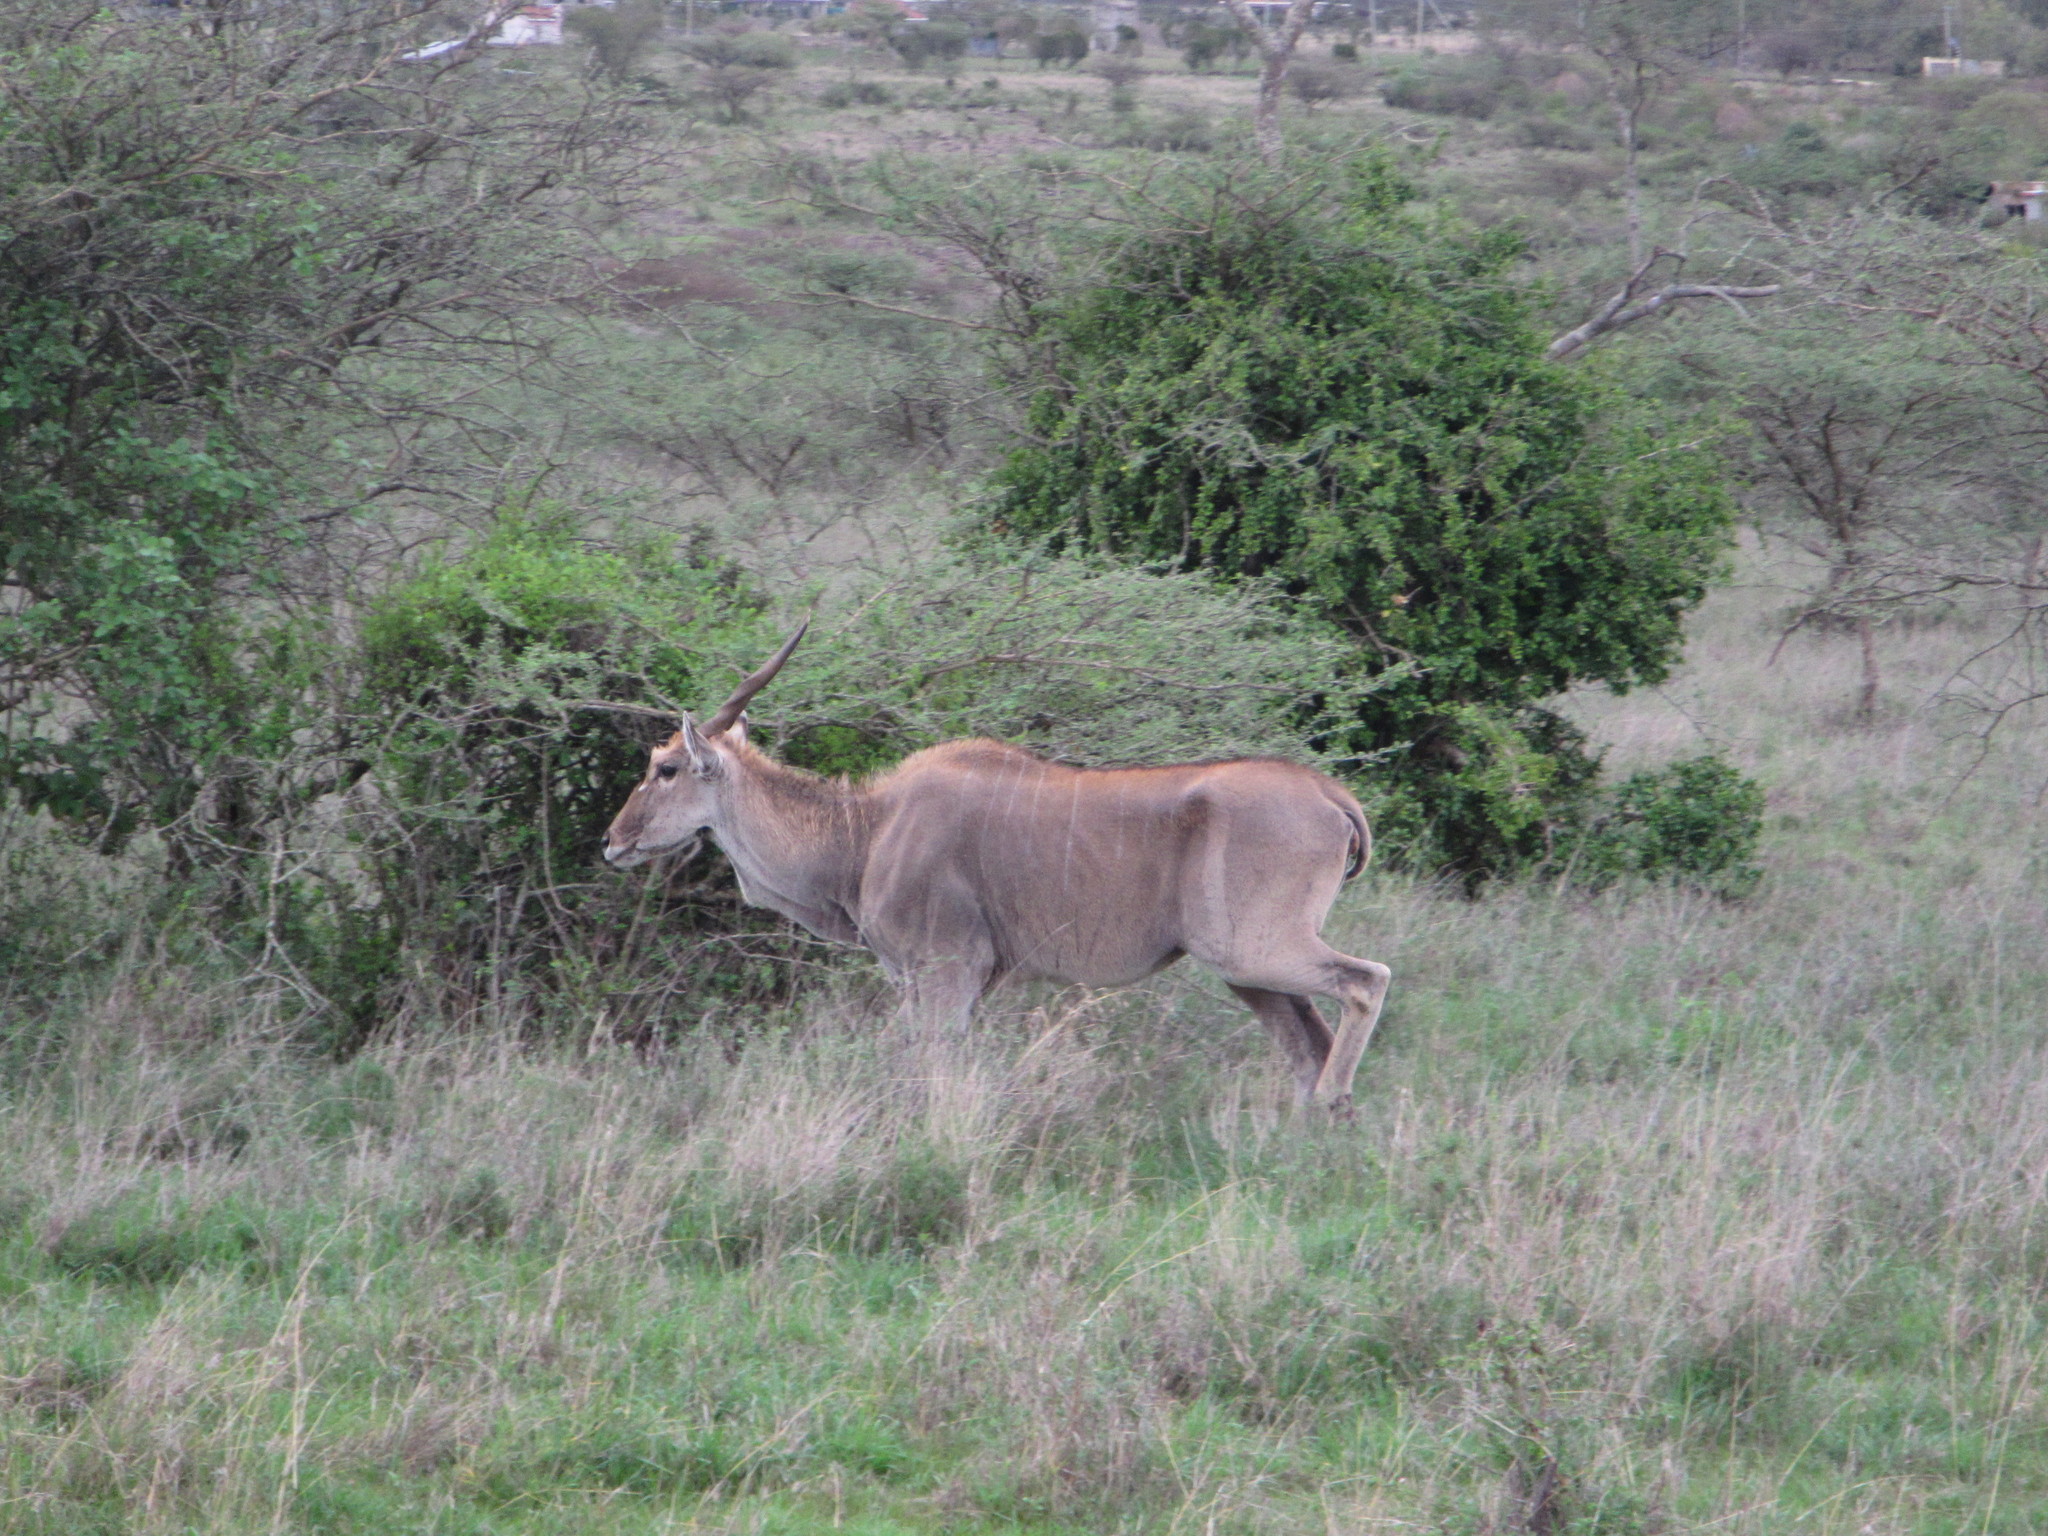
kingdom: Animalia
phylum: Chordata
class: Mammalia
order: Artiodactyla
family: Bovidae
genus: Taurotragus
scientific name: Taurotragus oryx
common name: Common eland
